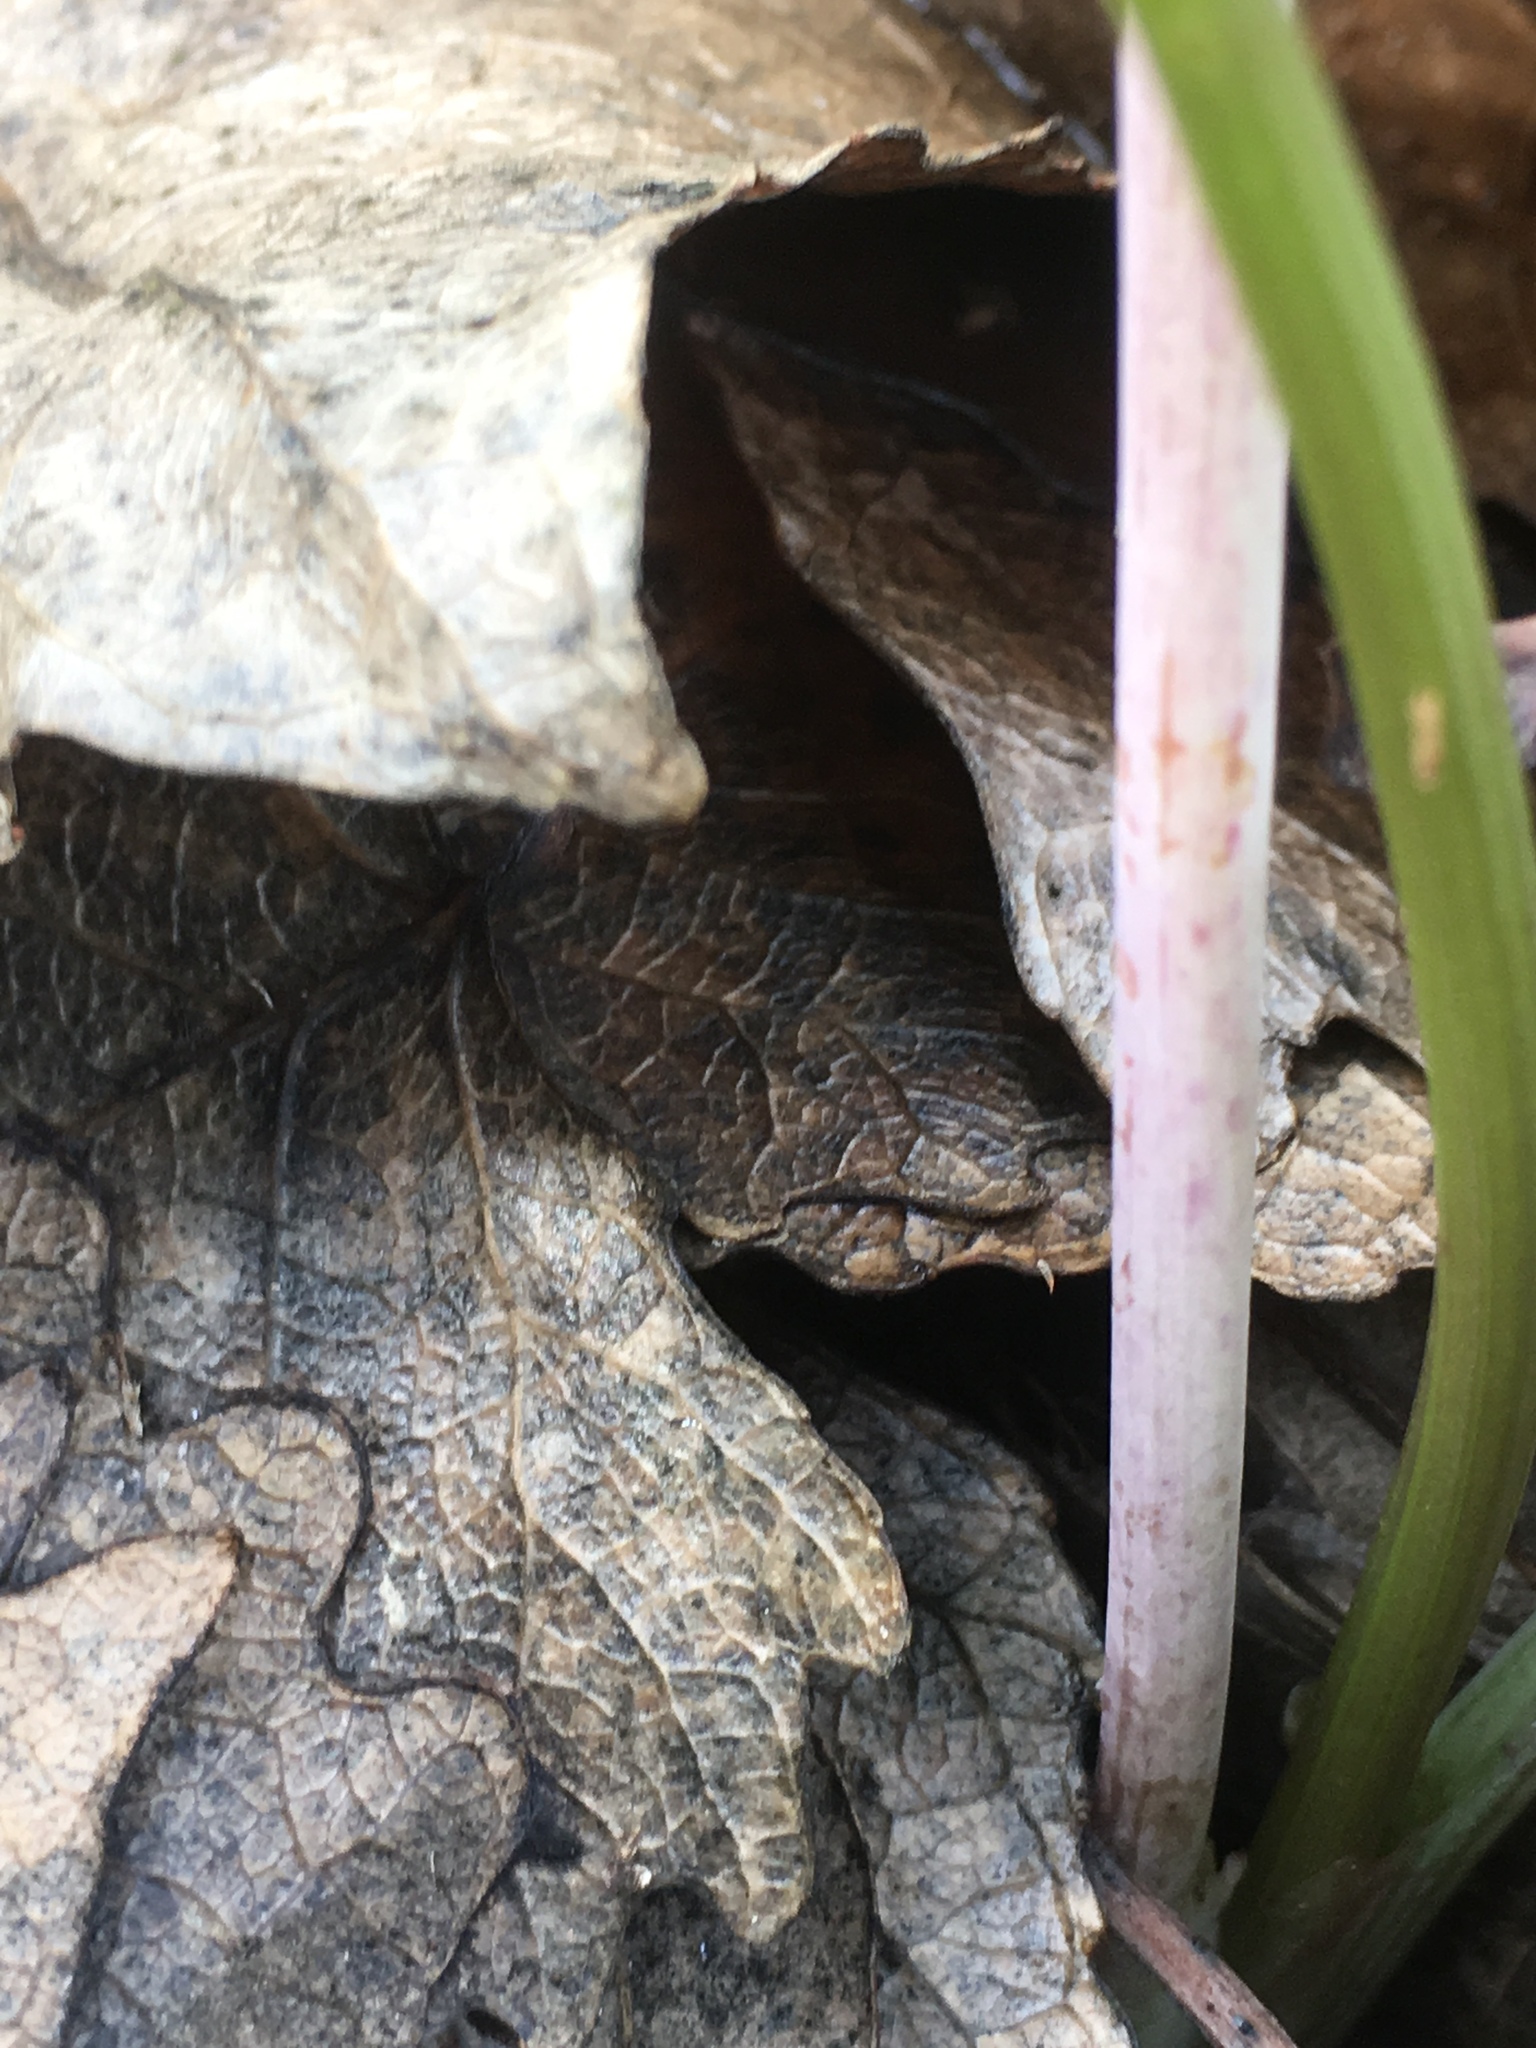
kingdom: Plantae
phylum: Tracheophyta
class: Magnoliopsida
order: Apiales
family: Apiaceae
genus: Conium
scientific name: Conium maculatum
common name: Hemlock
